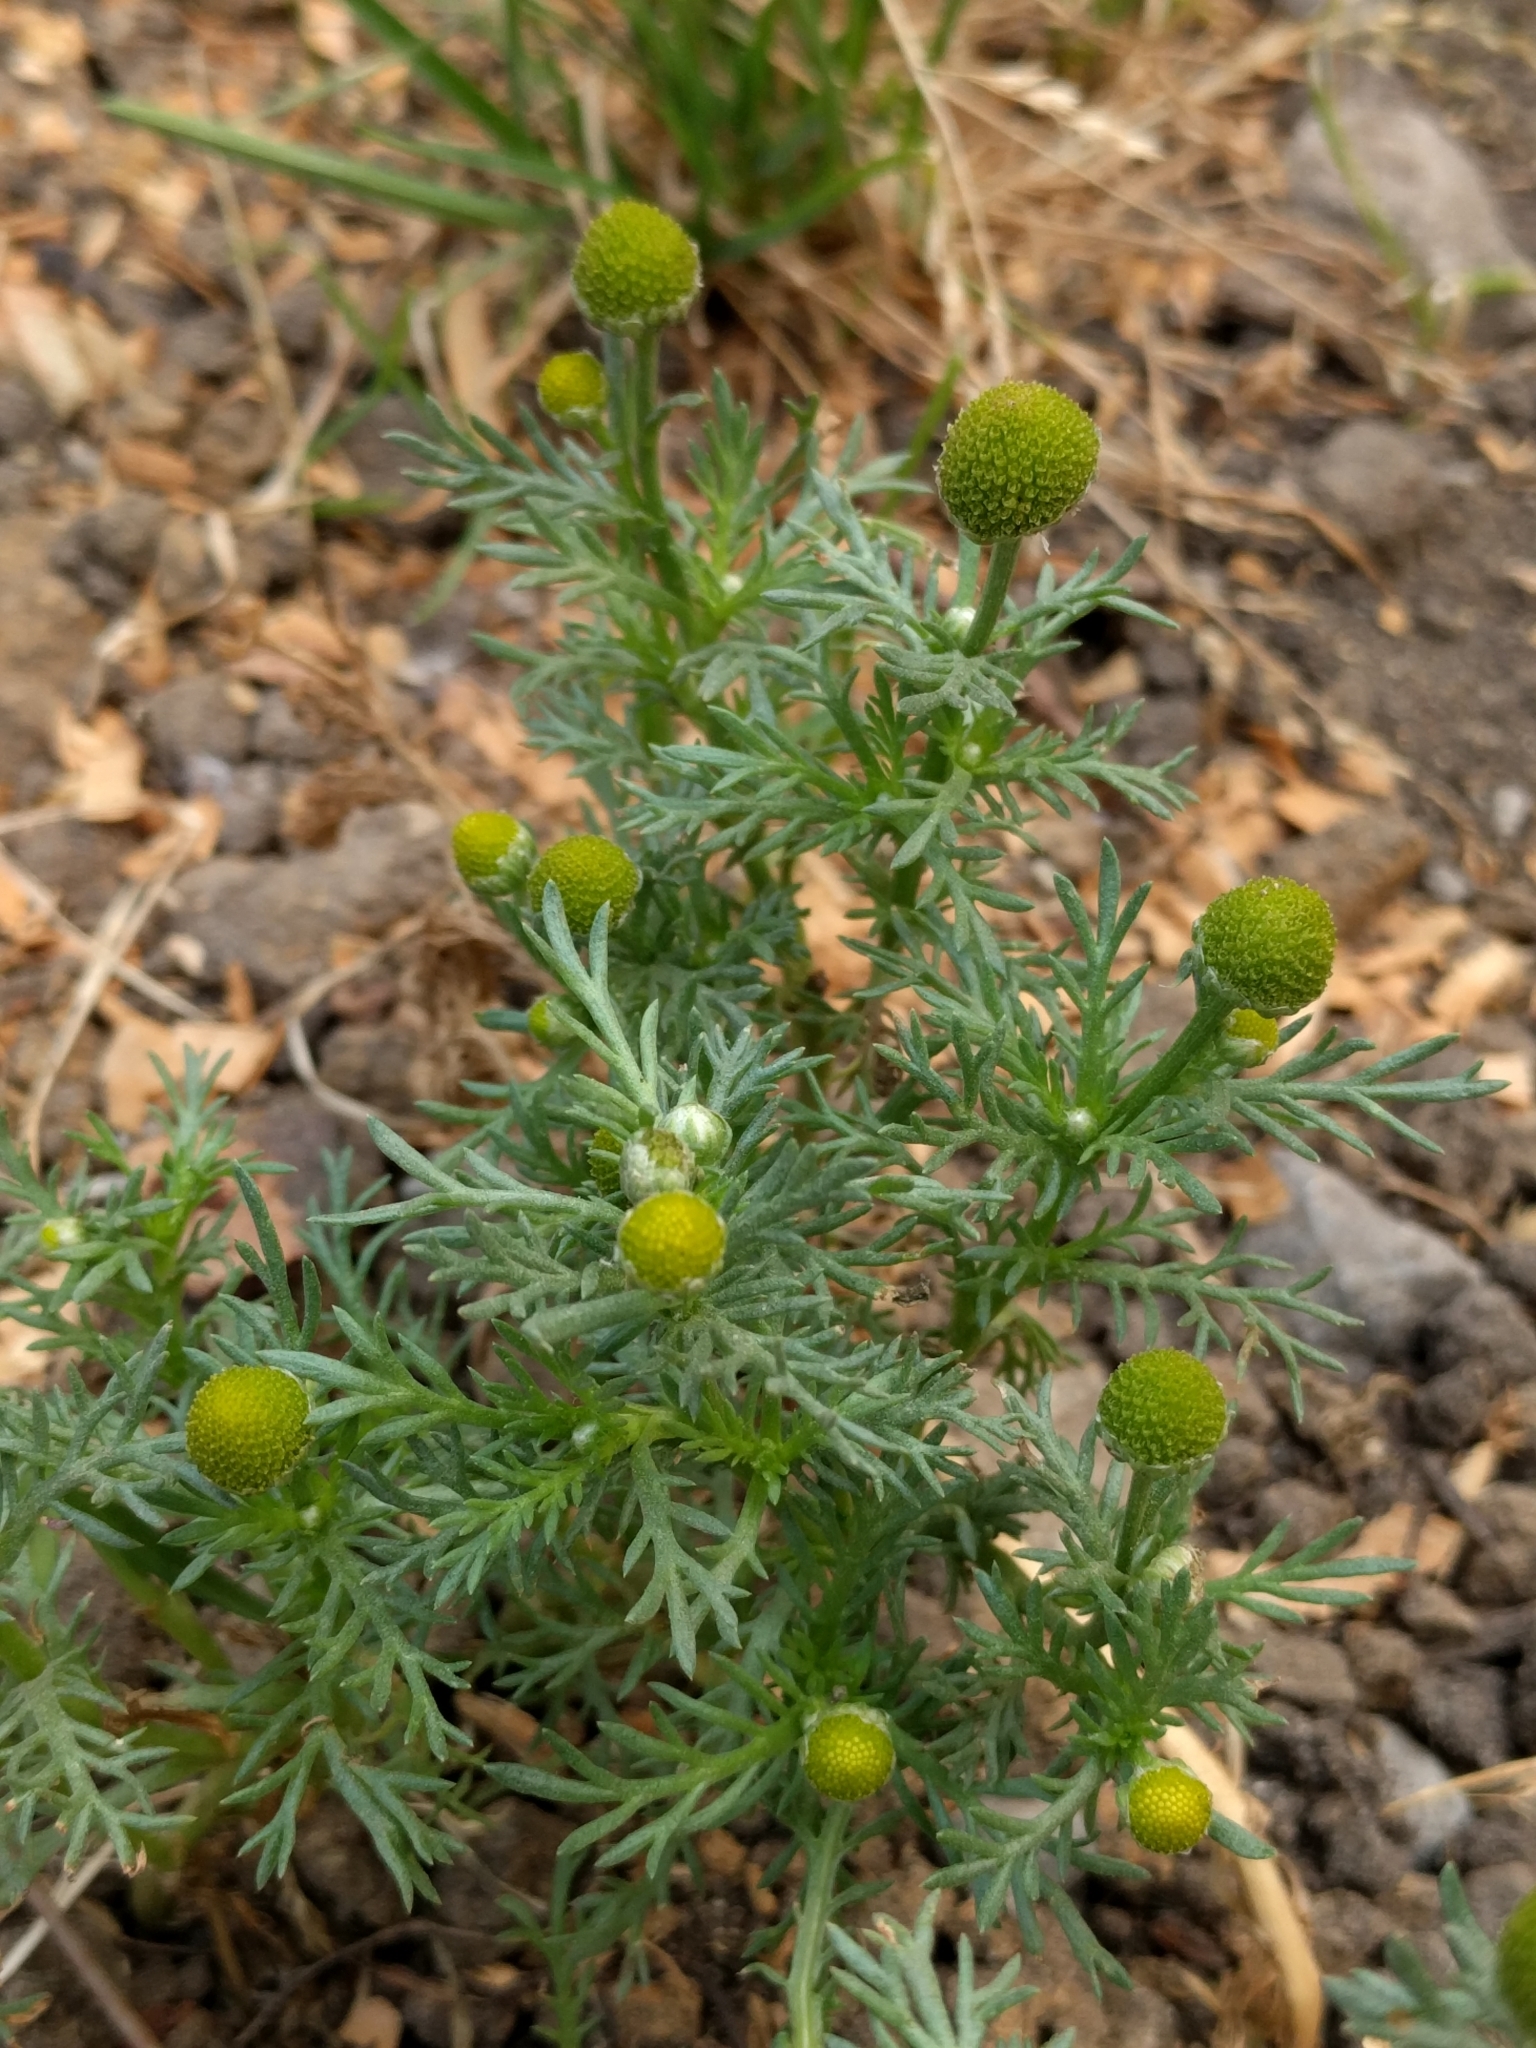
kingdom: Plantae
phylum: Tracheophyta
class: Magnoliopsida
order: Asterales
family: Asteraceae
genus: Matricaria
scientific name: Matricaria discoidea
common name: Disc mayweed
